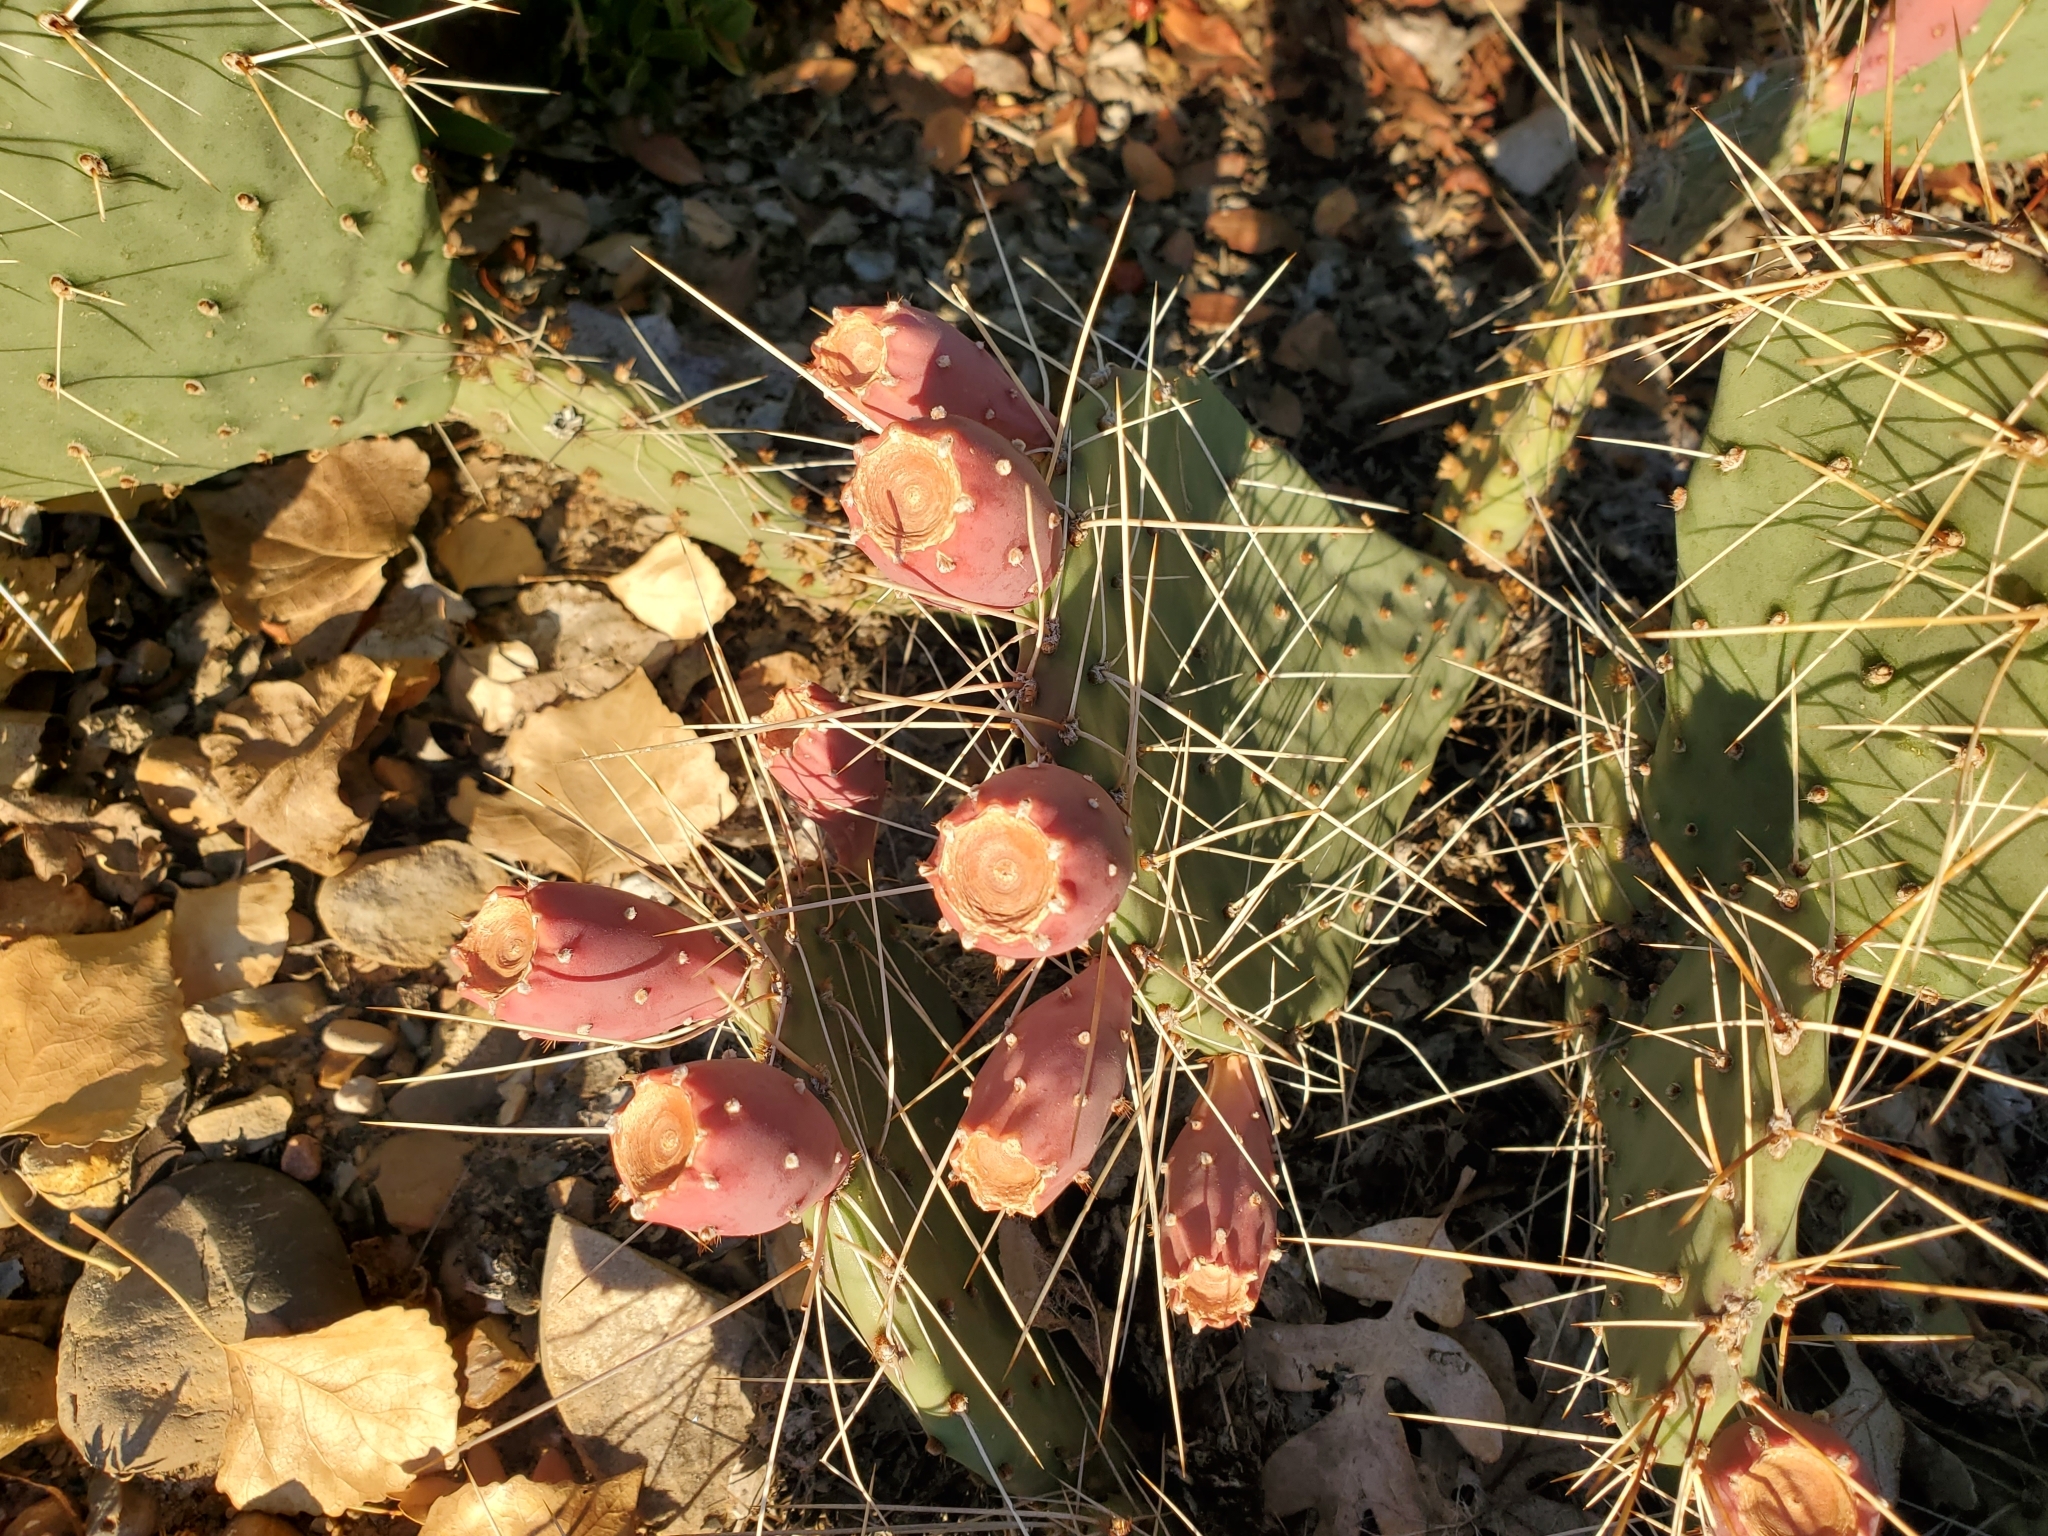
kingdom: Plantae
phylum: Tracheophyta
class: Magnoliopsida
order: Caryophyllales
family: Cactaceae
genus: Opuntia
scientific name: Opuntia phaeacantha
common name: New mexico prickly-pear
